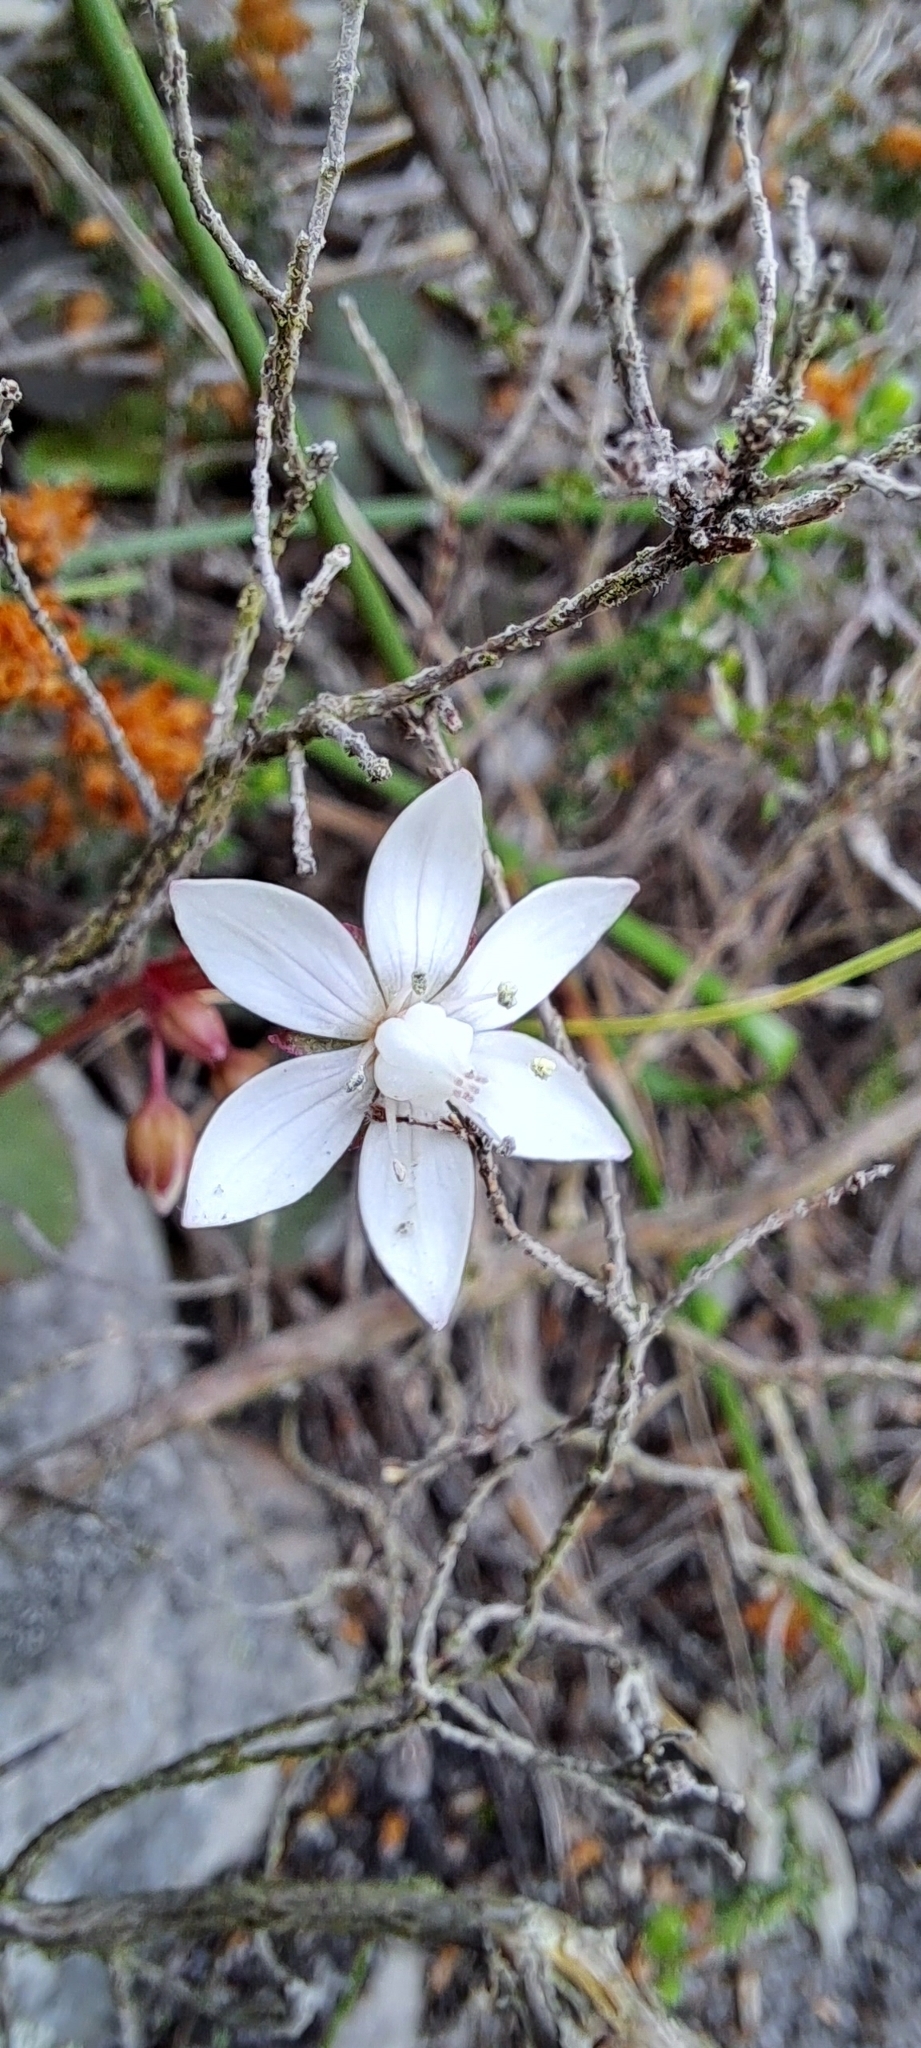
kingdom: Plantae
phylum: Tracheophyta
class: Magnoliopsida
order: Saxifragales
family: Crassulaceae
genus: Crassula
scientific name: Crassula capensis
